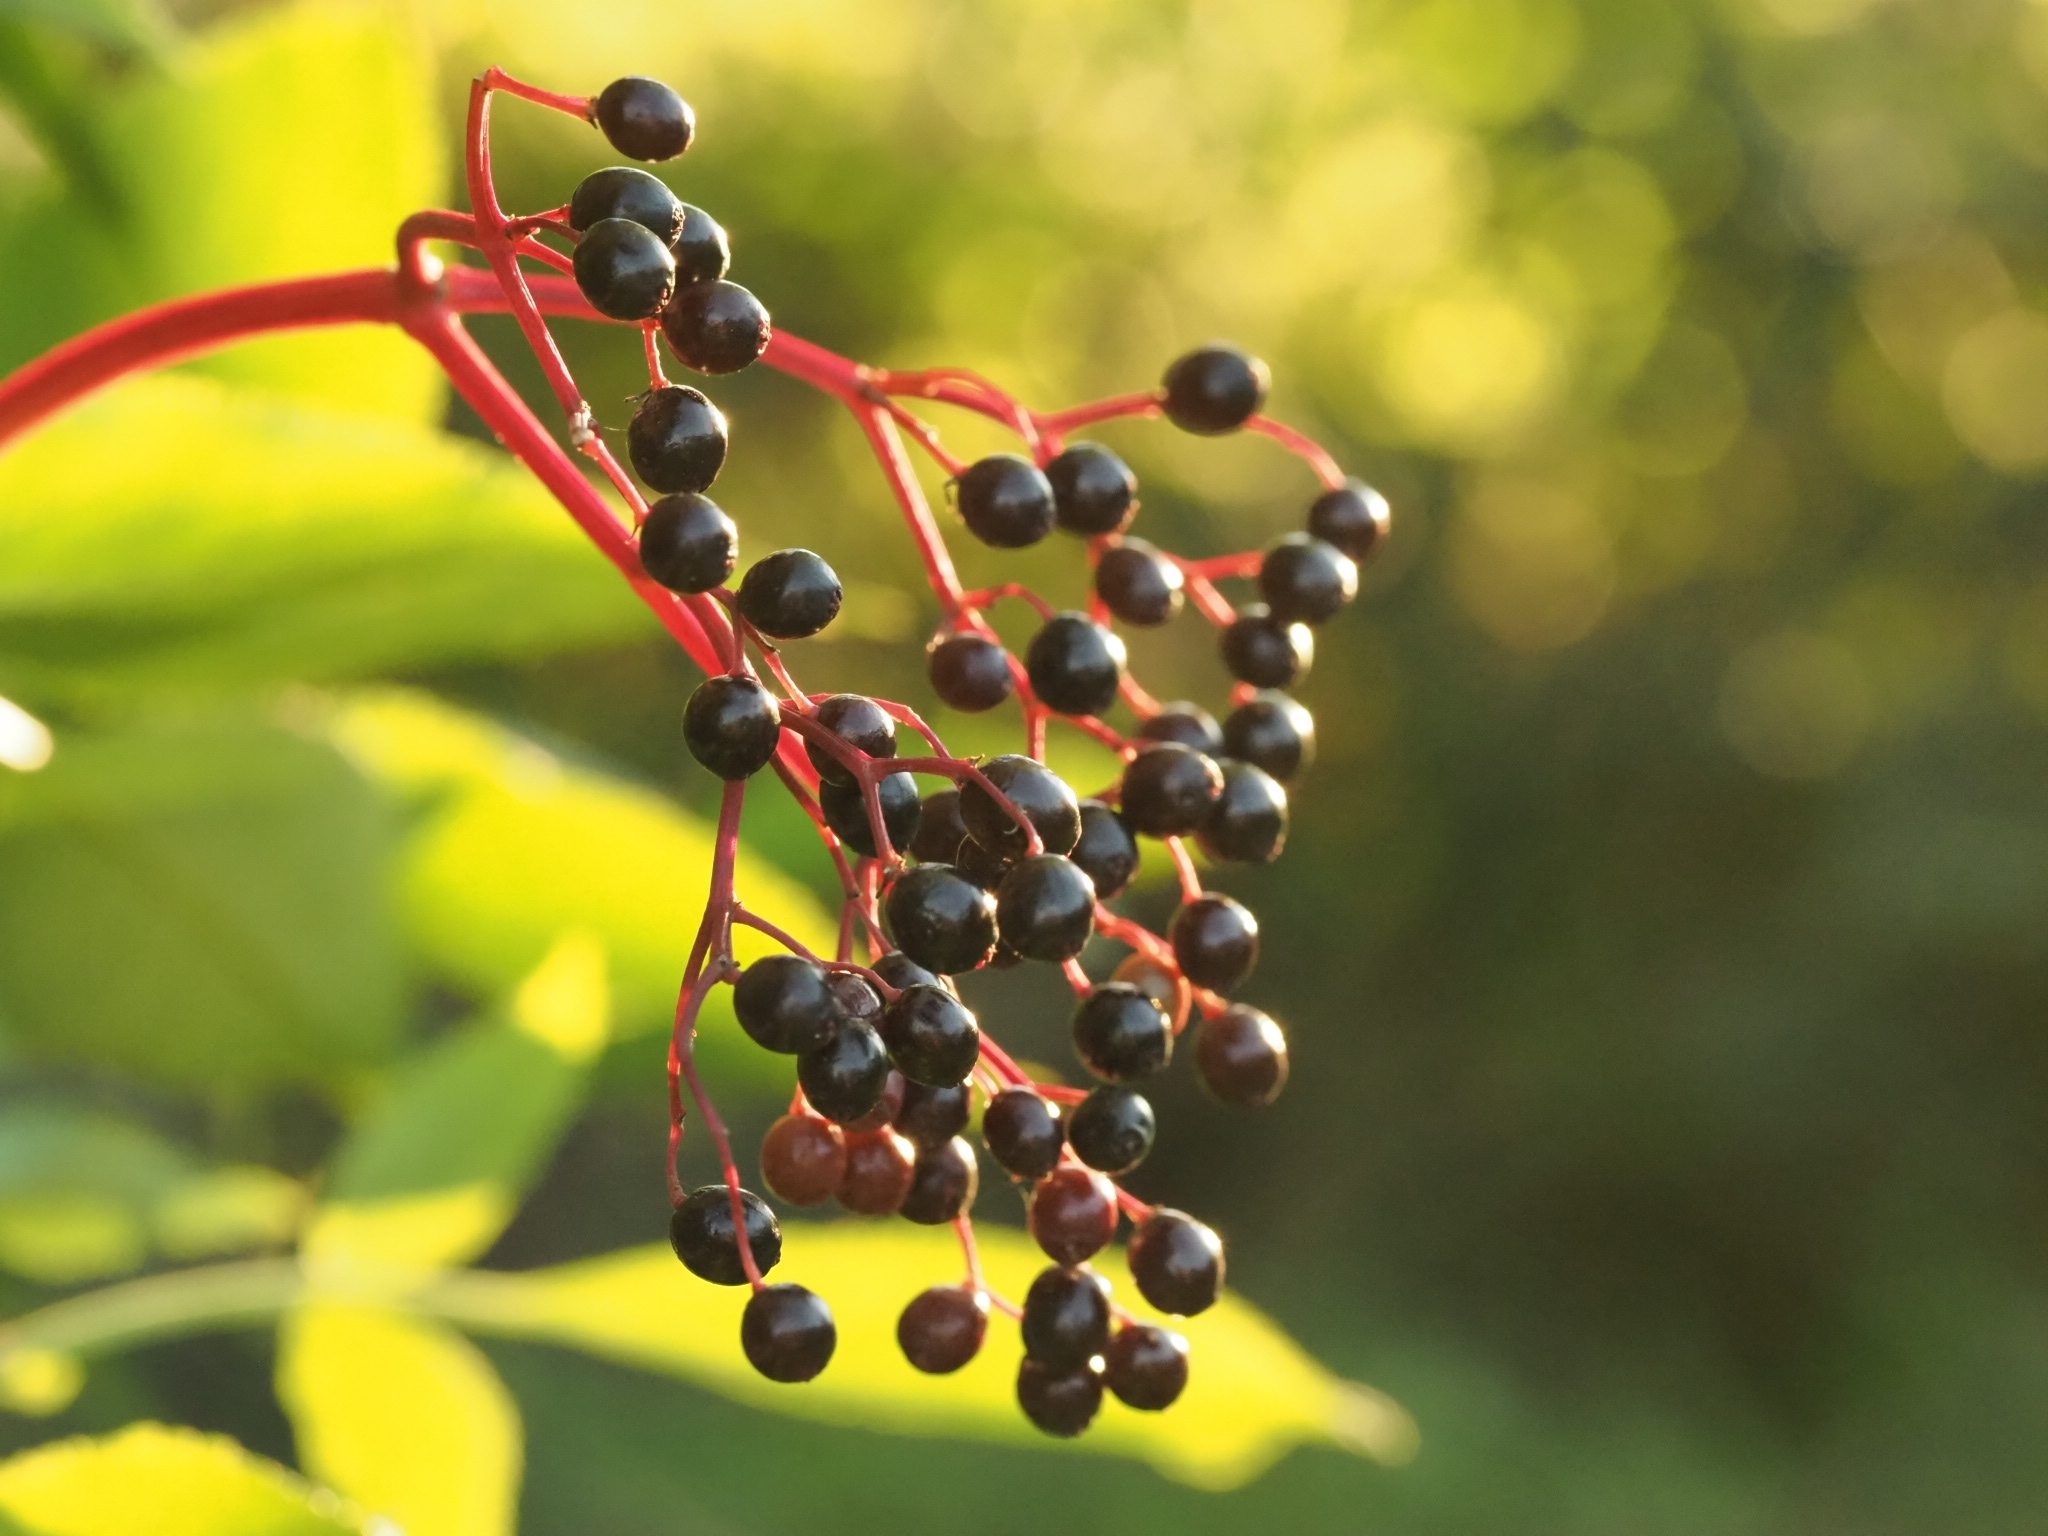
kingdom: Plantae
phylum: Tracheophyta
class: Magnoliopsida
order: Dipsacales
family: Viburnaceae
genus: Sambucus
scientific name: Sambucus nigra
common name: Elder
